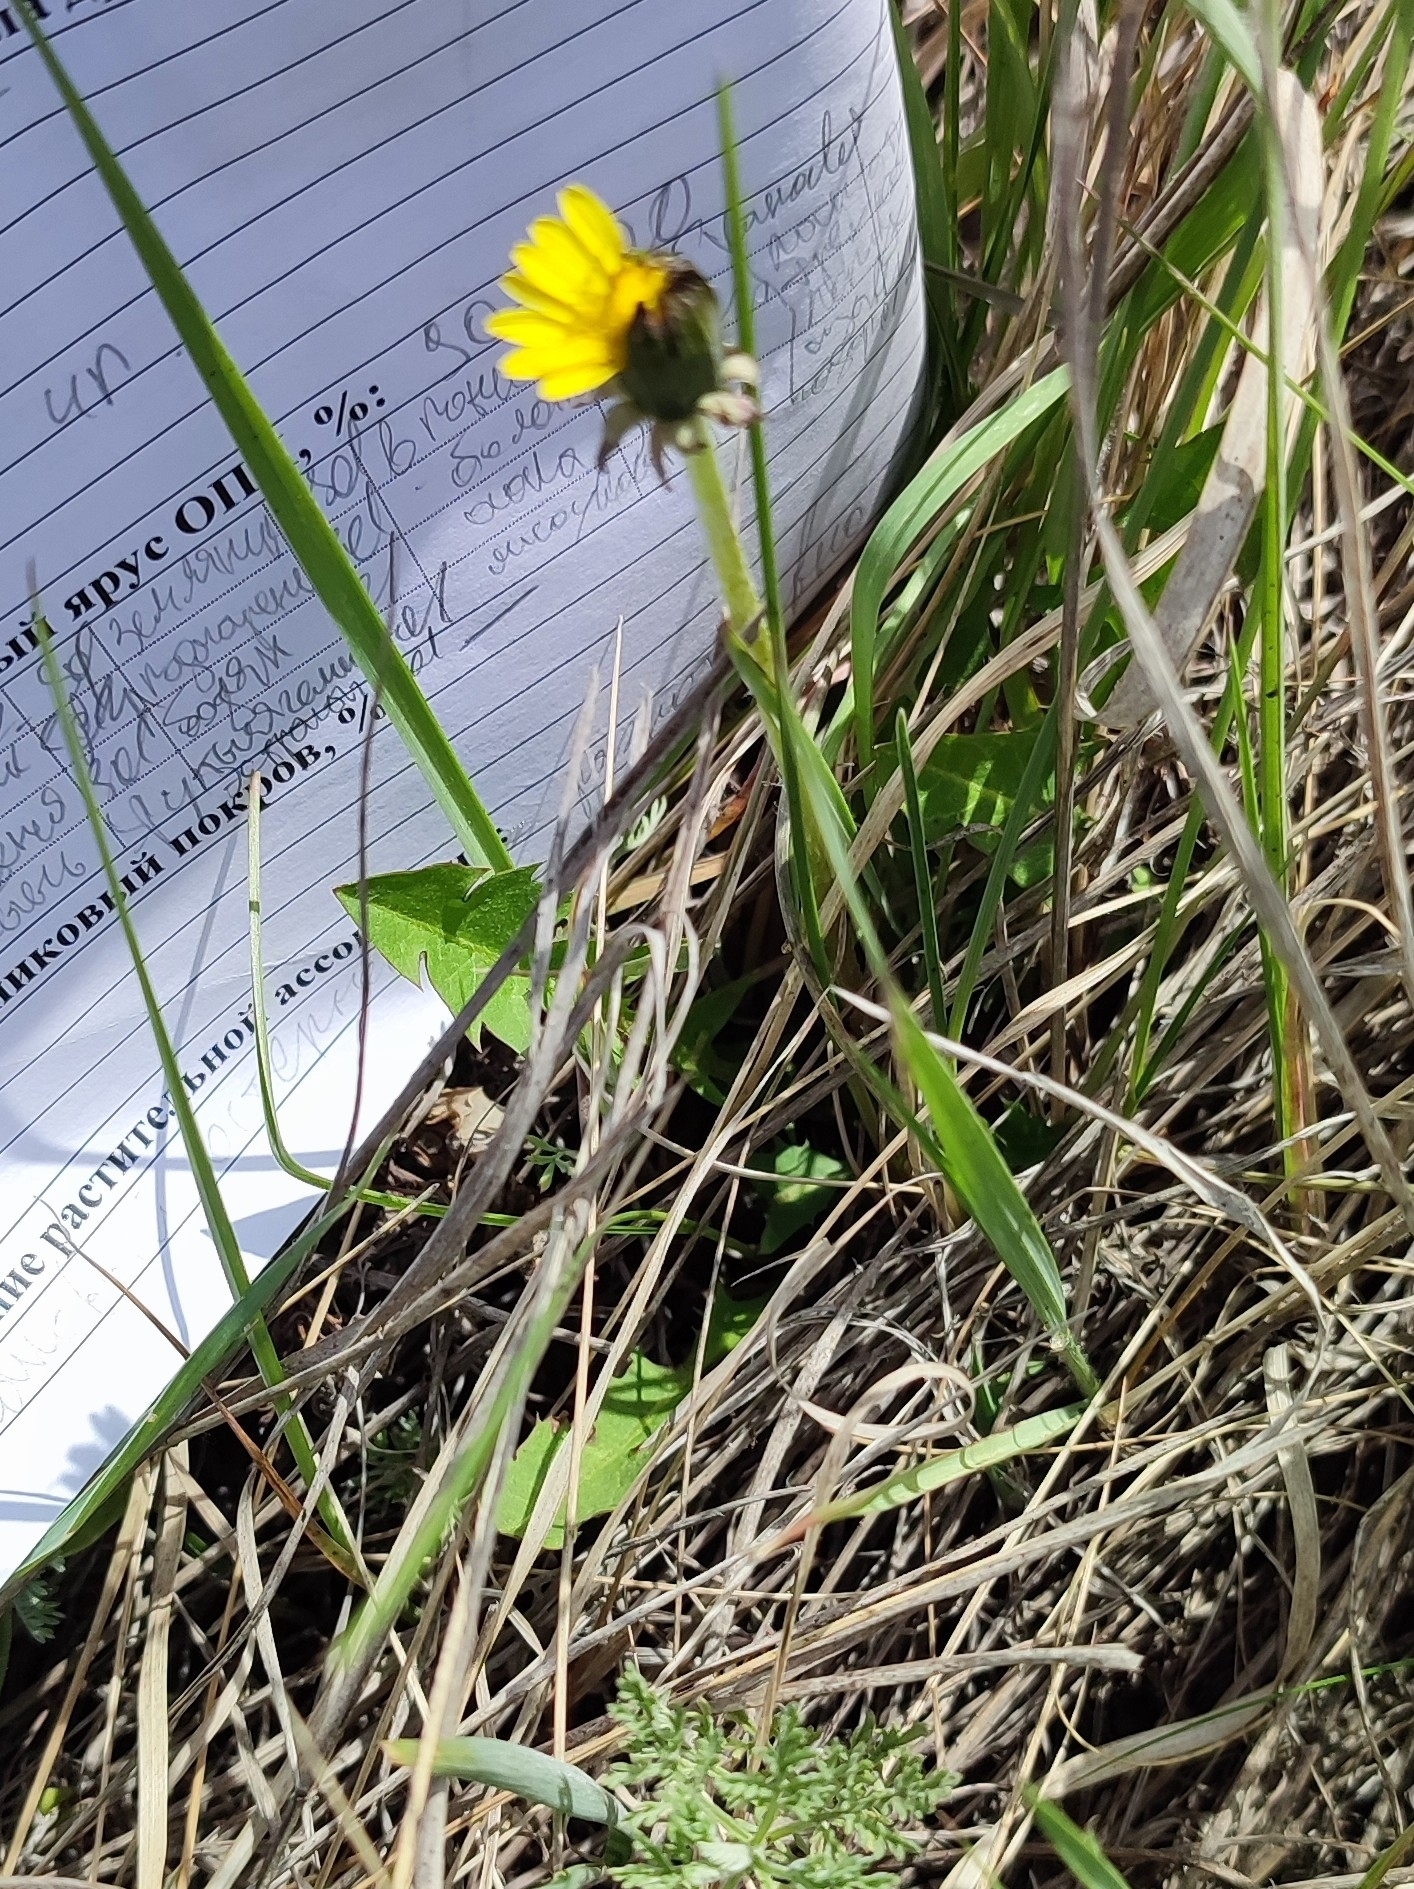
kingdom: Plantae
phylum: Tracheophyta
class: Magnoliopsida
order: Asterales
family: Asteraceae
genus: Taraxacum
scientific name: Taraxacum officinale
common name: Common dandelion
